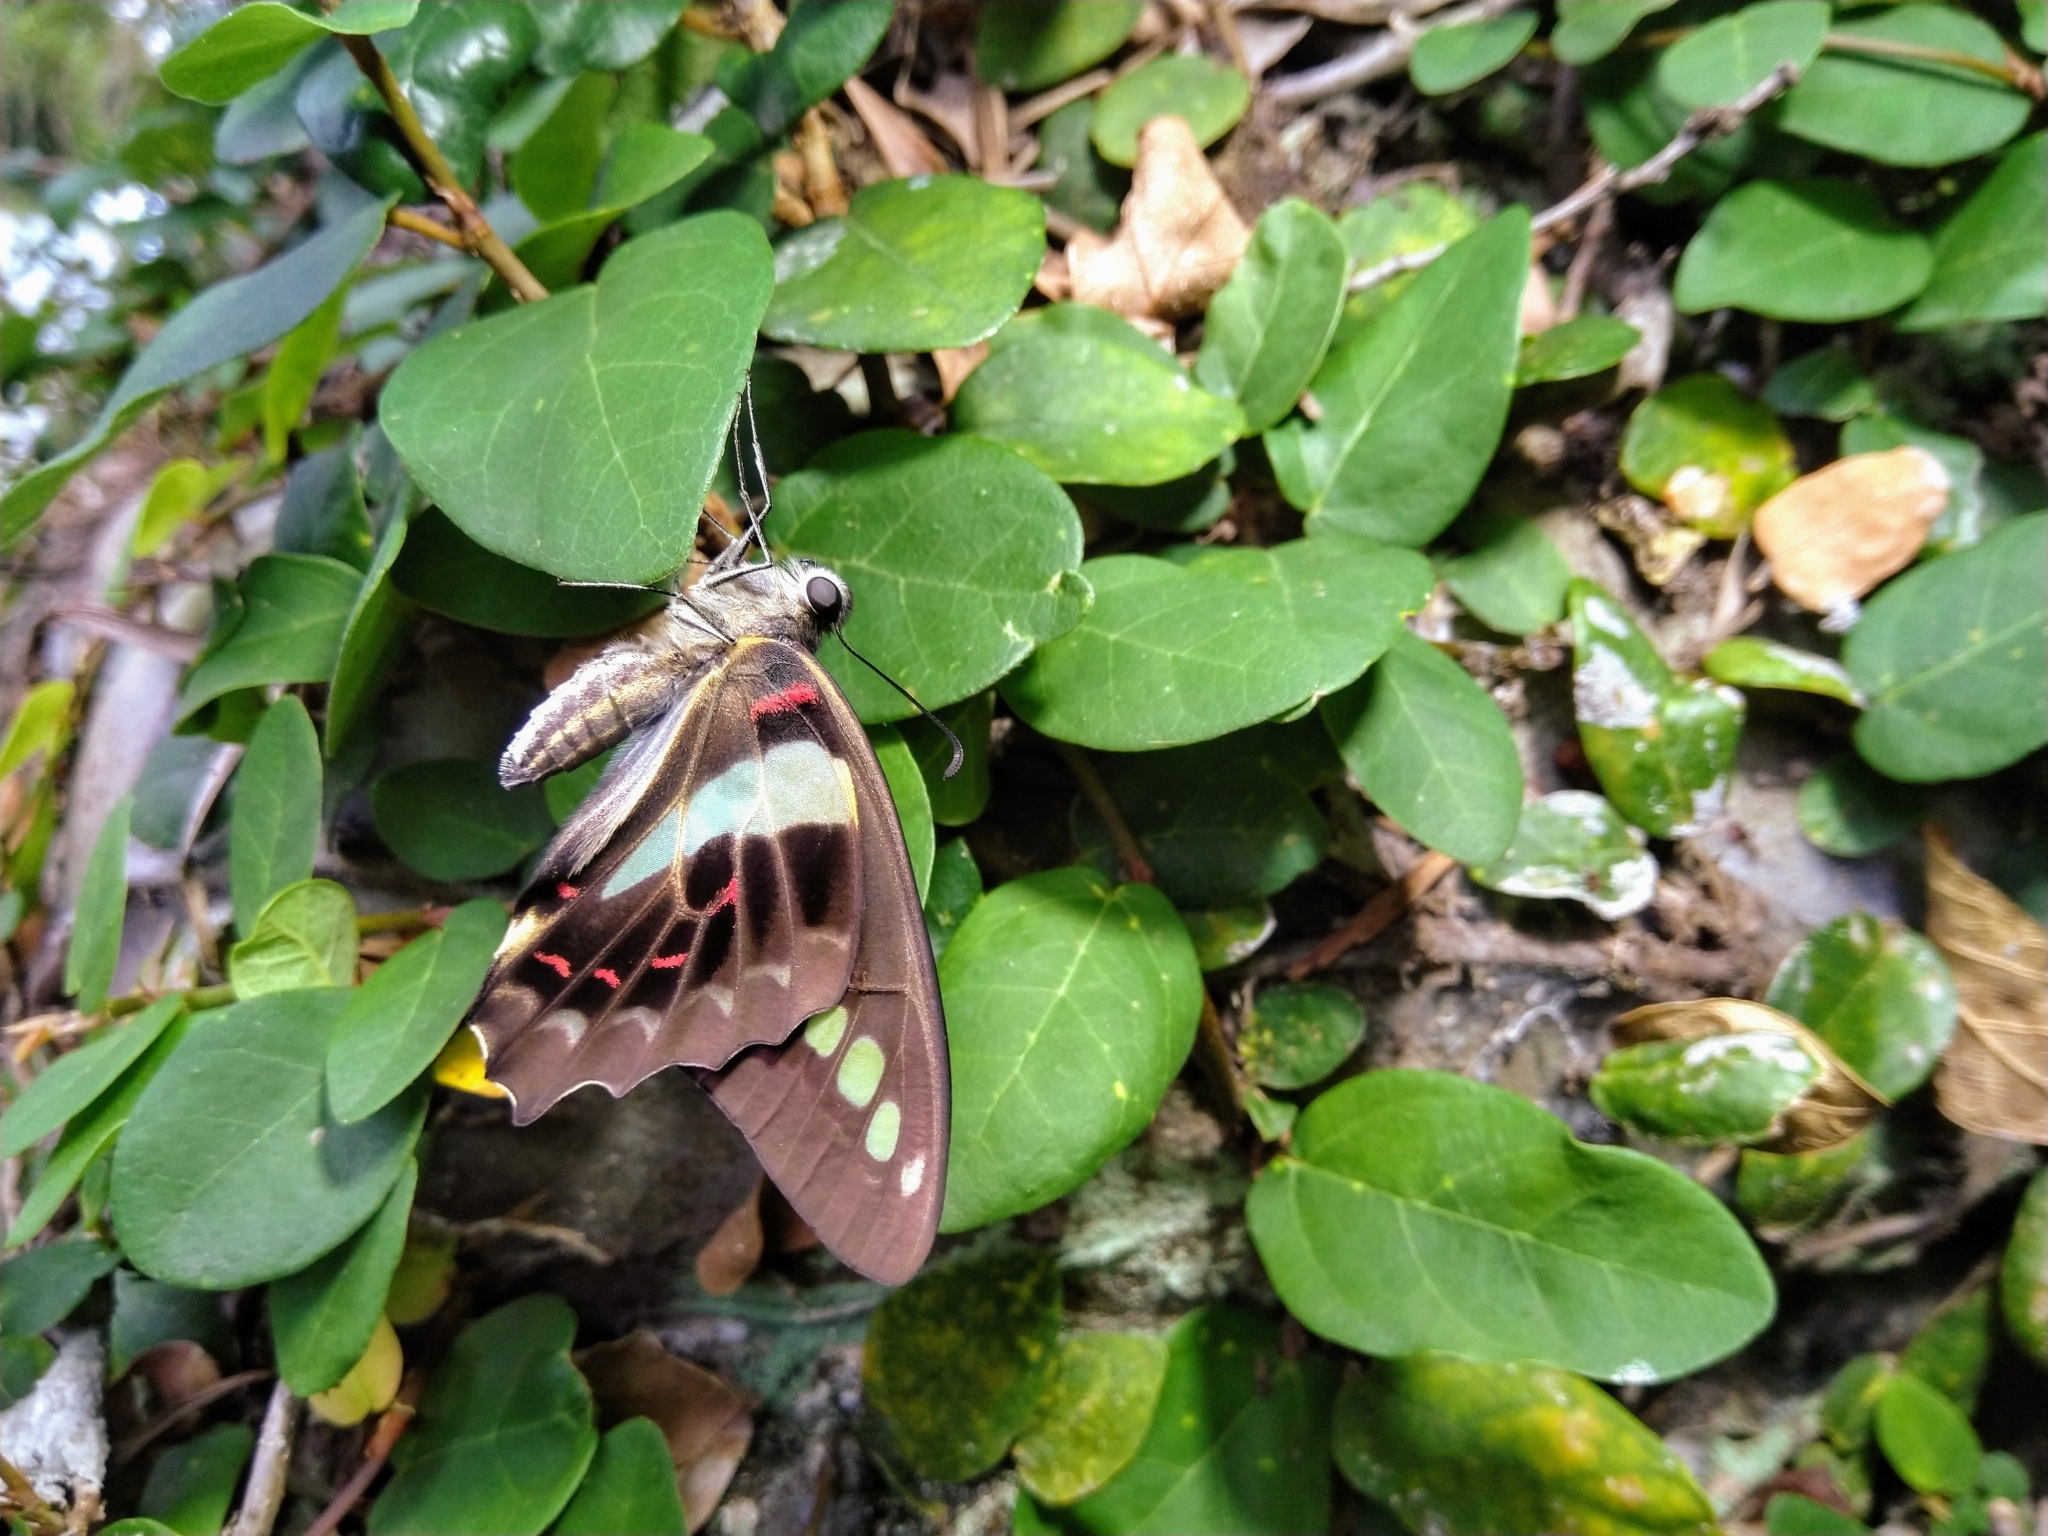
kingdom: Fungi
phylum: Ascomycota
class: Sordariomycetes
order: Microascales
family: Microascaceae
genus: Graphium
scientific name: Graphium sarpedon
